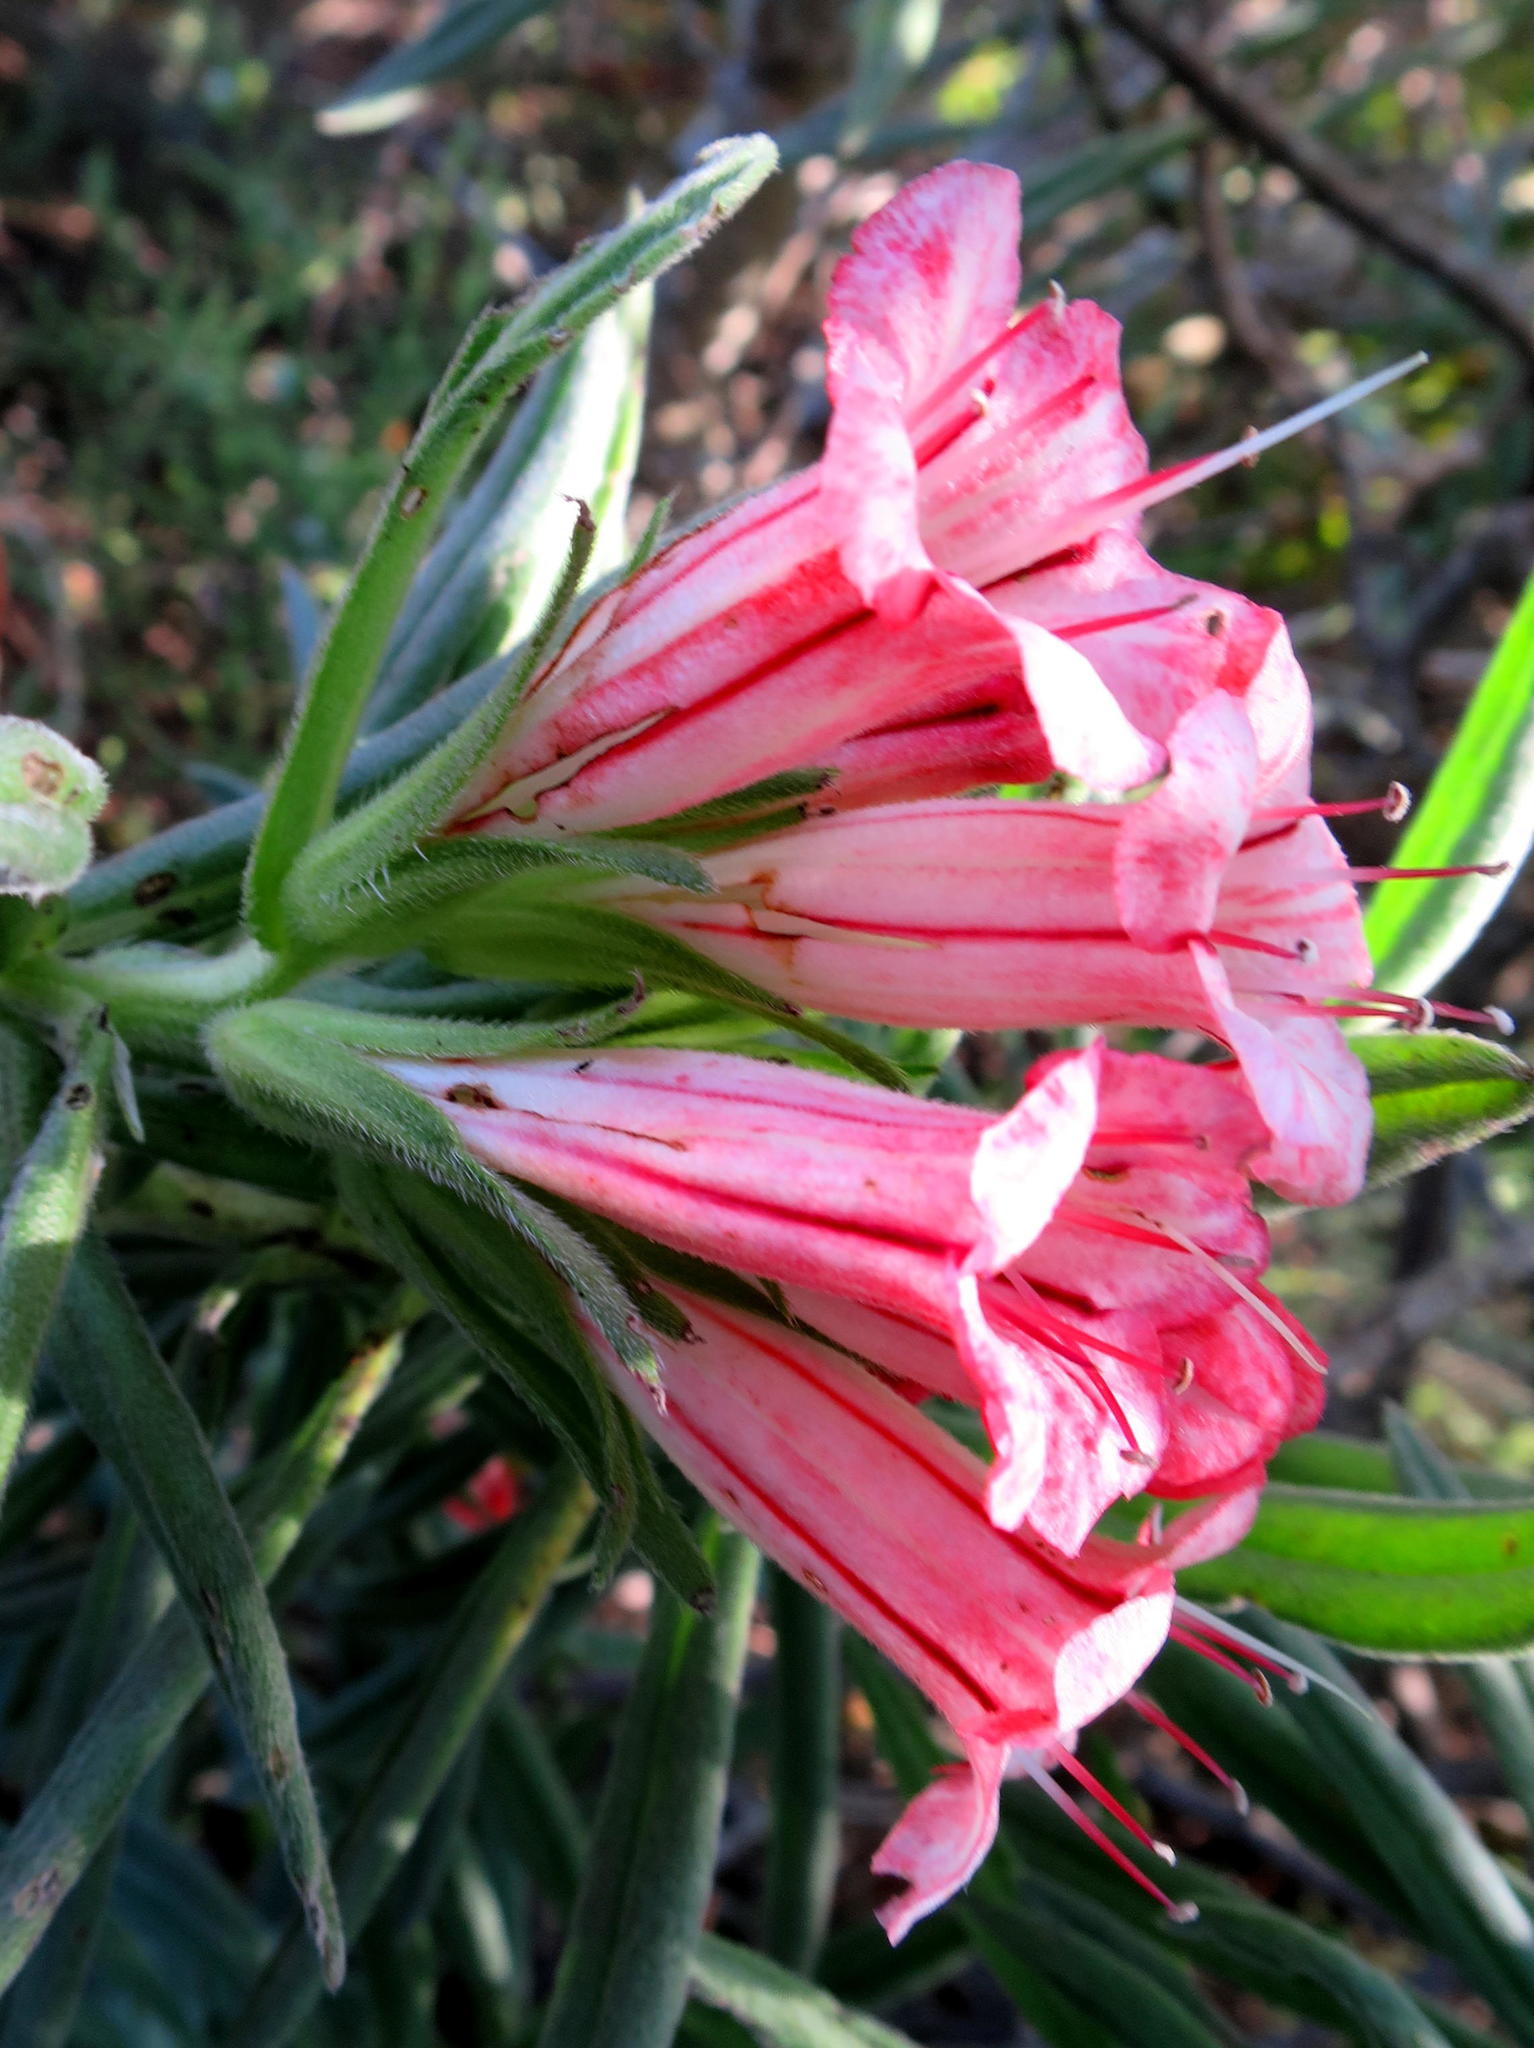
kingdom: Plantae
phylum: Tracheophyta
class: Magnoliopsida
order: Boraginales
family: Boraginaceae
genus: Lobostemon
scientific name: Lobostemon belliformis
